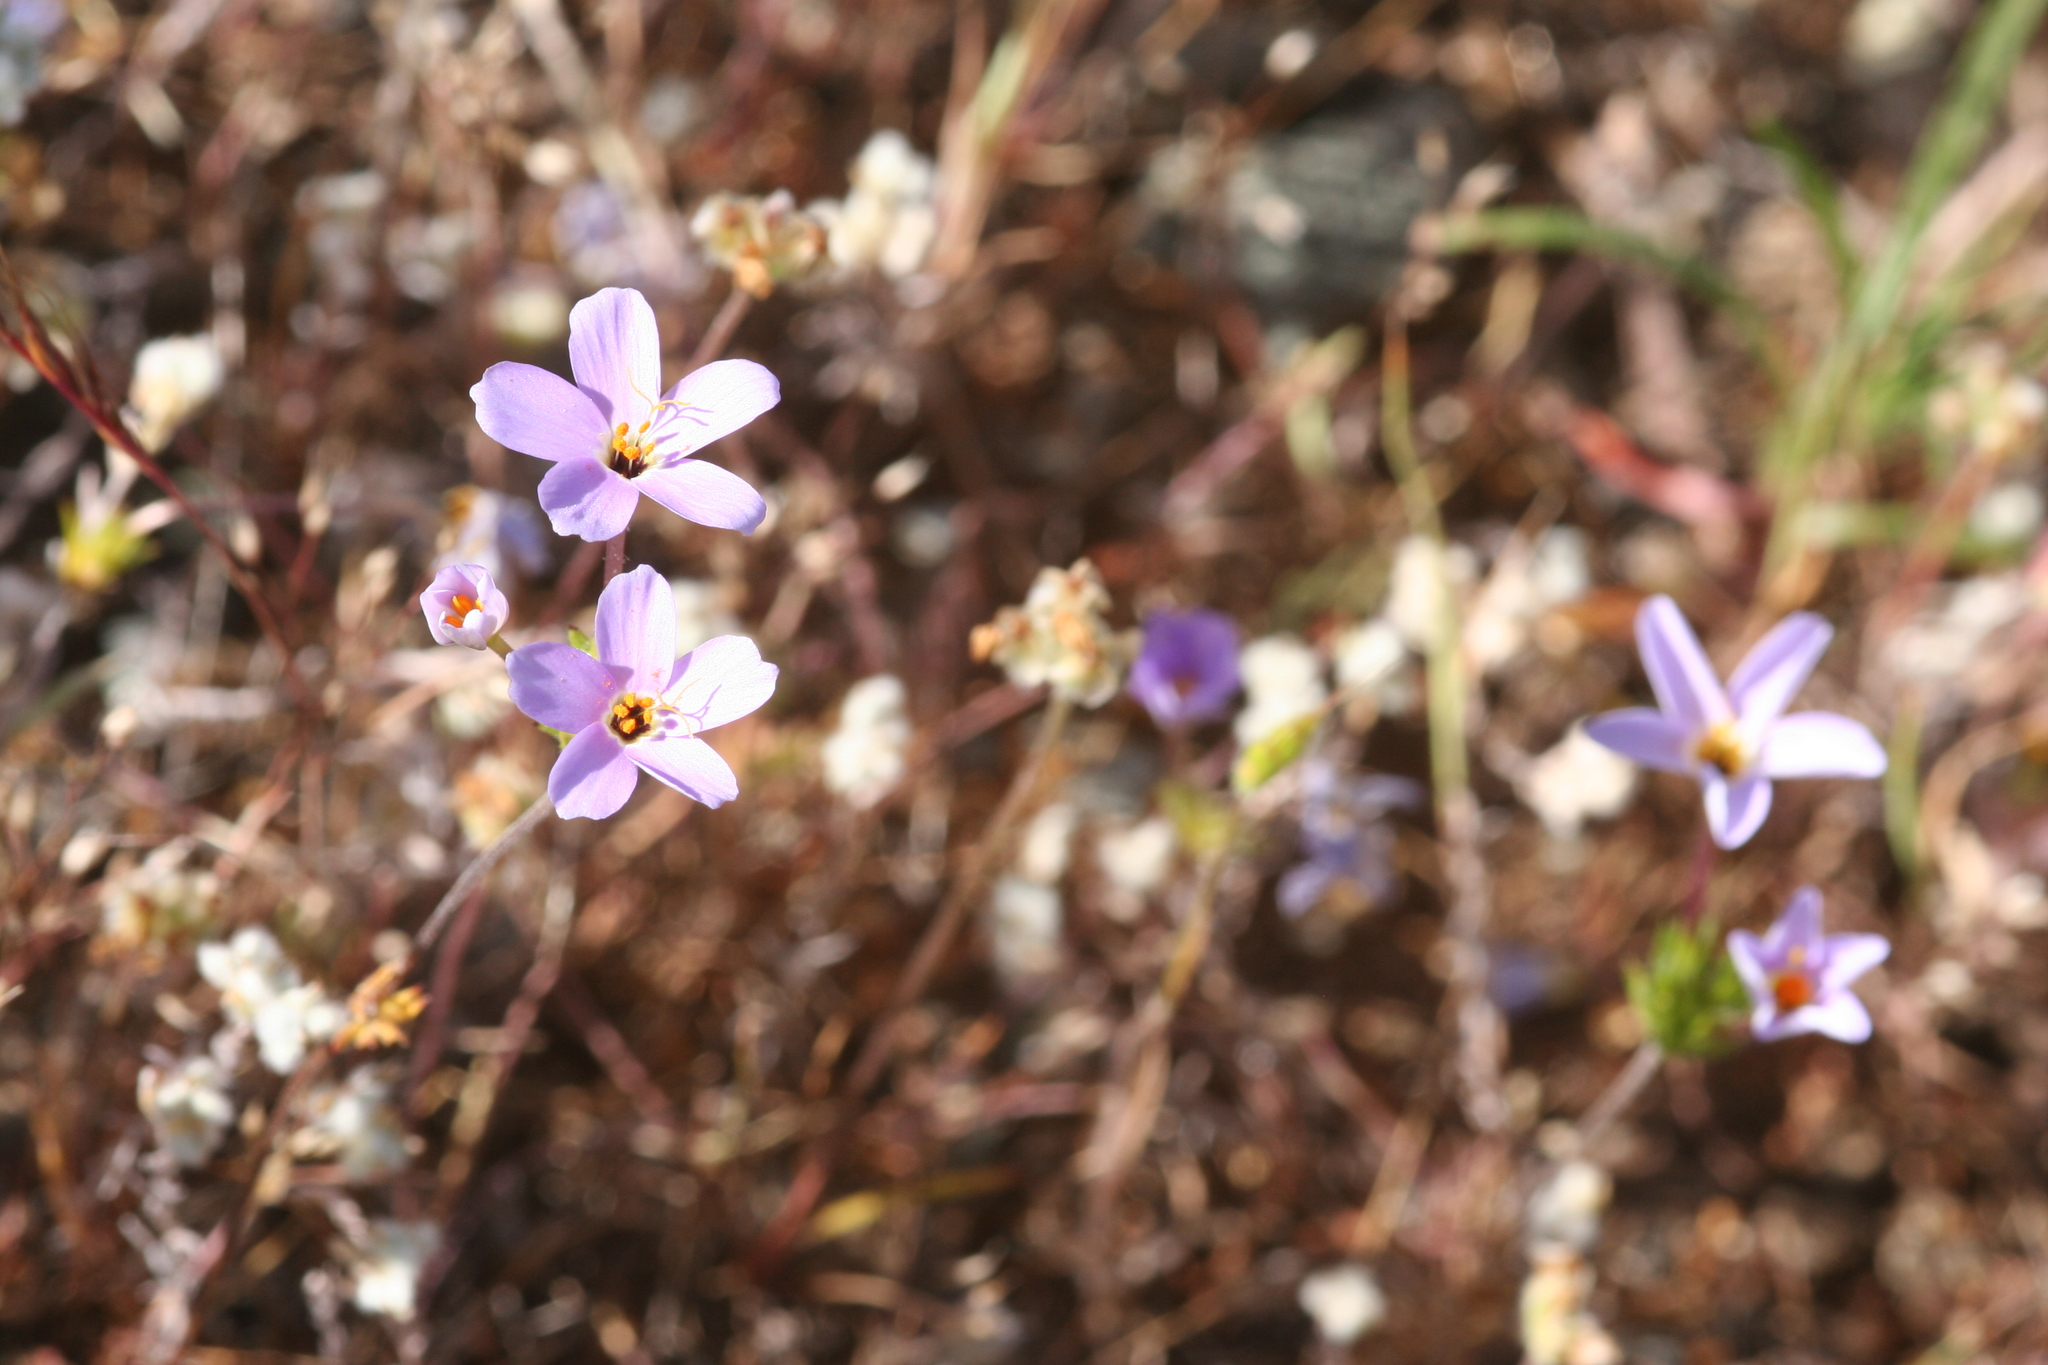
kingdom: Plantae
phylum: Tracheophyta
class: Magnoliopsida
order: Ericales
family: Polemoniaceae
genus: Leptosiphon
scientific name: Leptosiphon androsaceus
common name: False babystars
